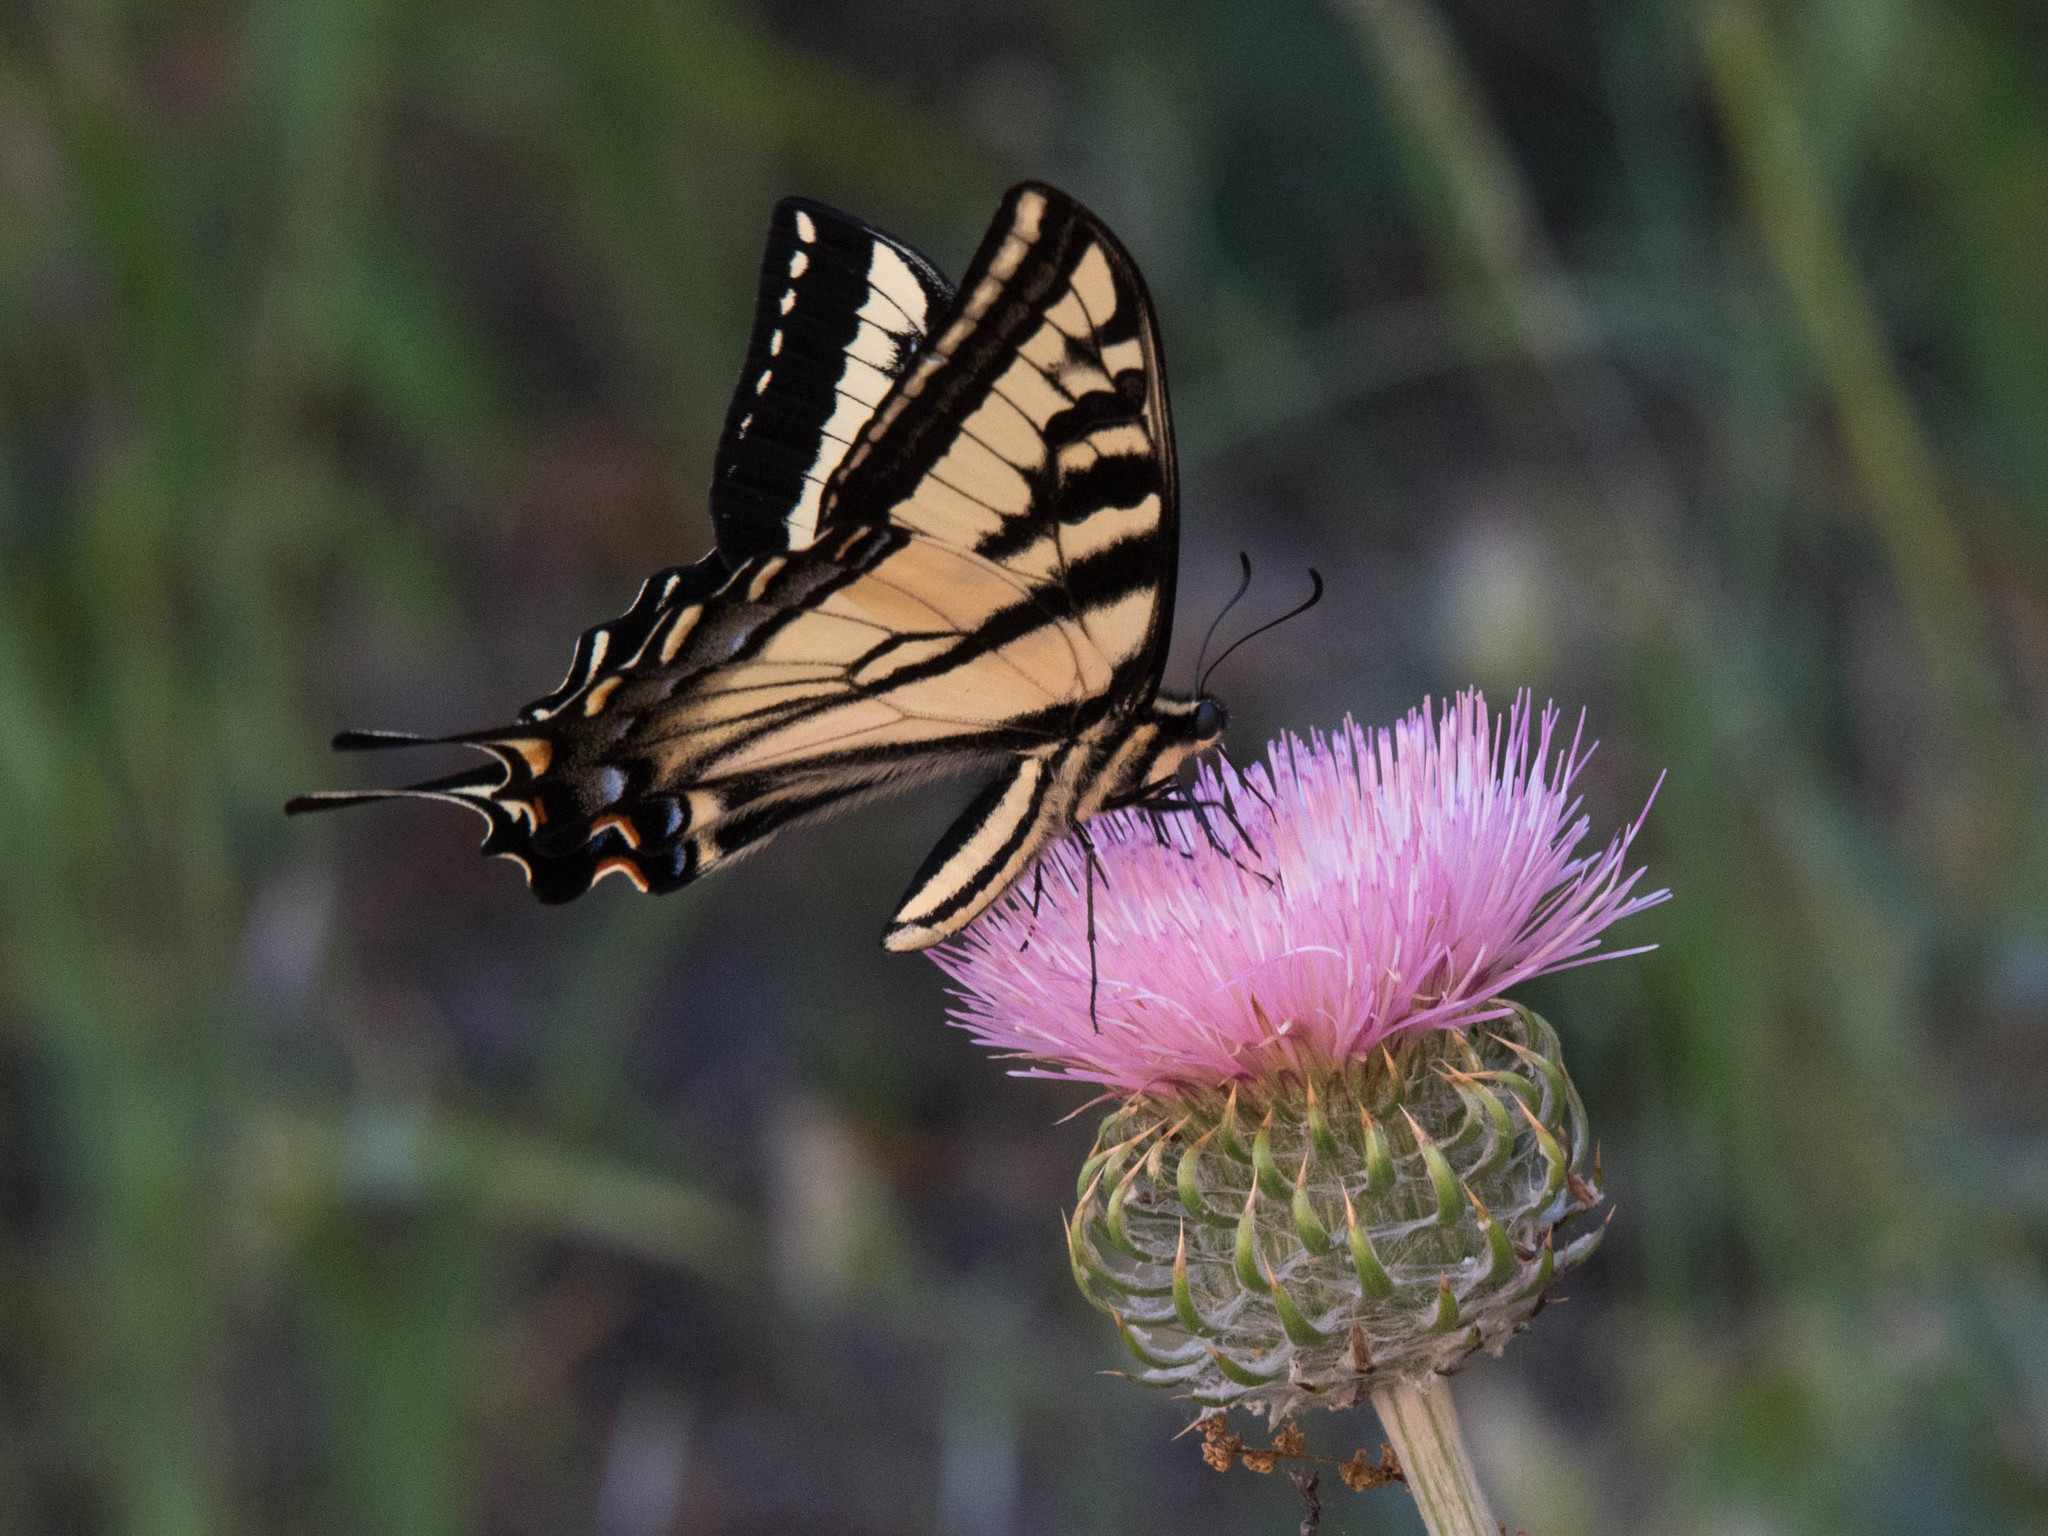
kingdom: Animalia
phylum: Arthropoda
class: Insecta
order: Lepidoptera
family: Papilionidae
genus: Papilio
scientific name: Papilio rutulus
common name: Western tiger swallowtail
